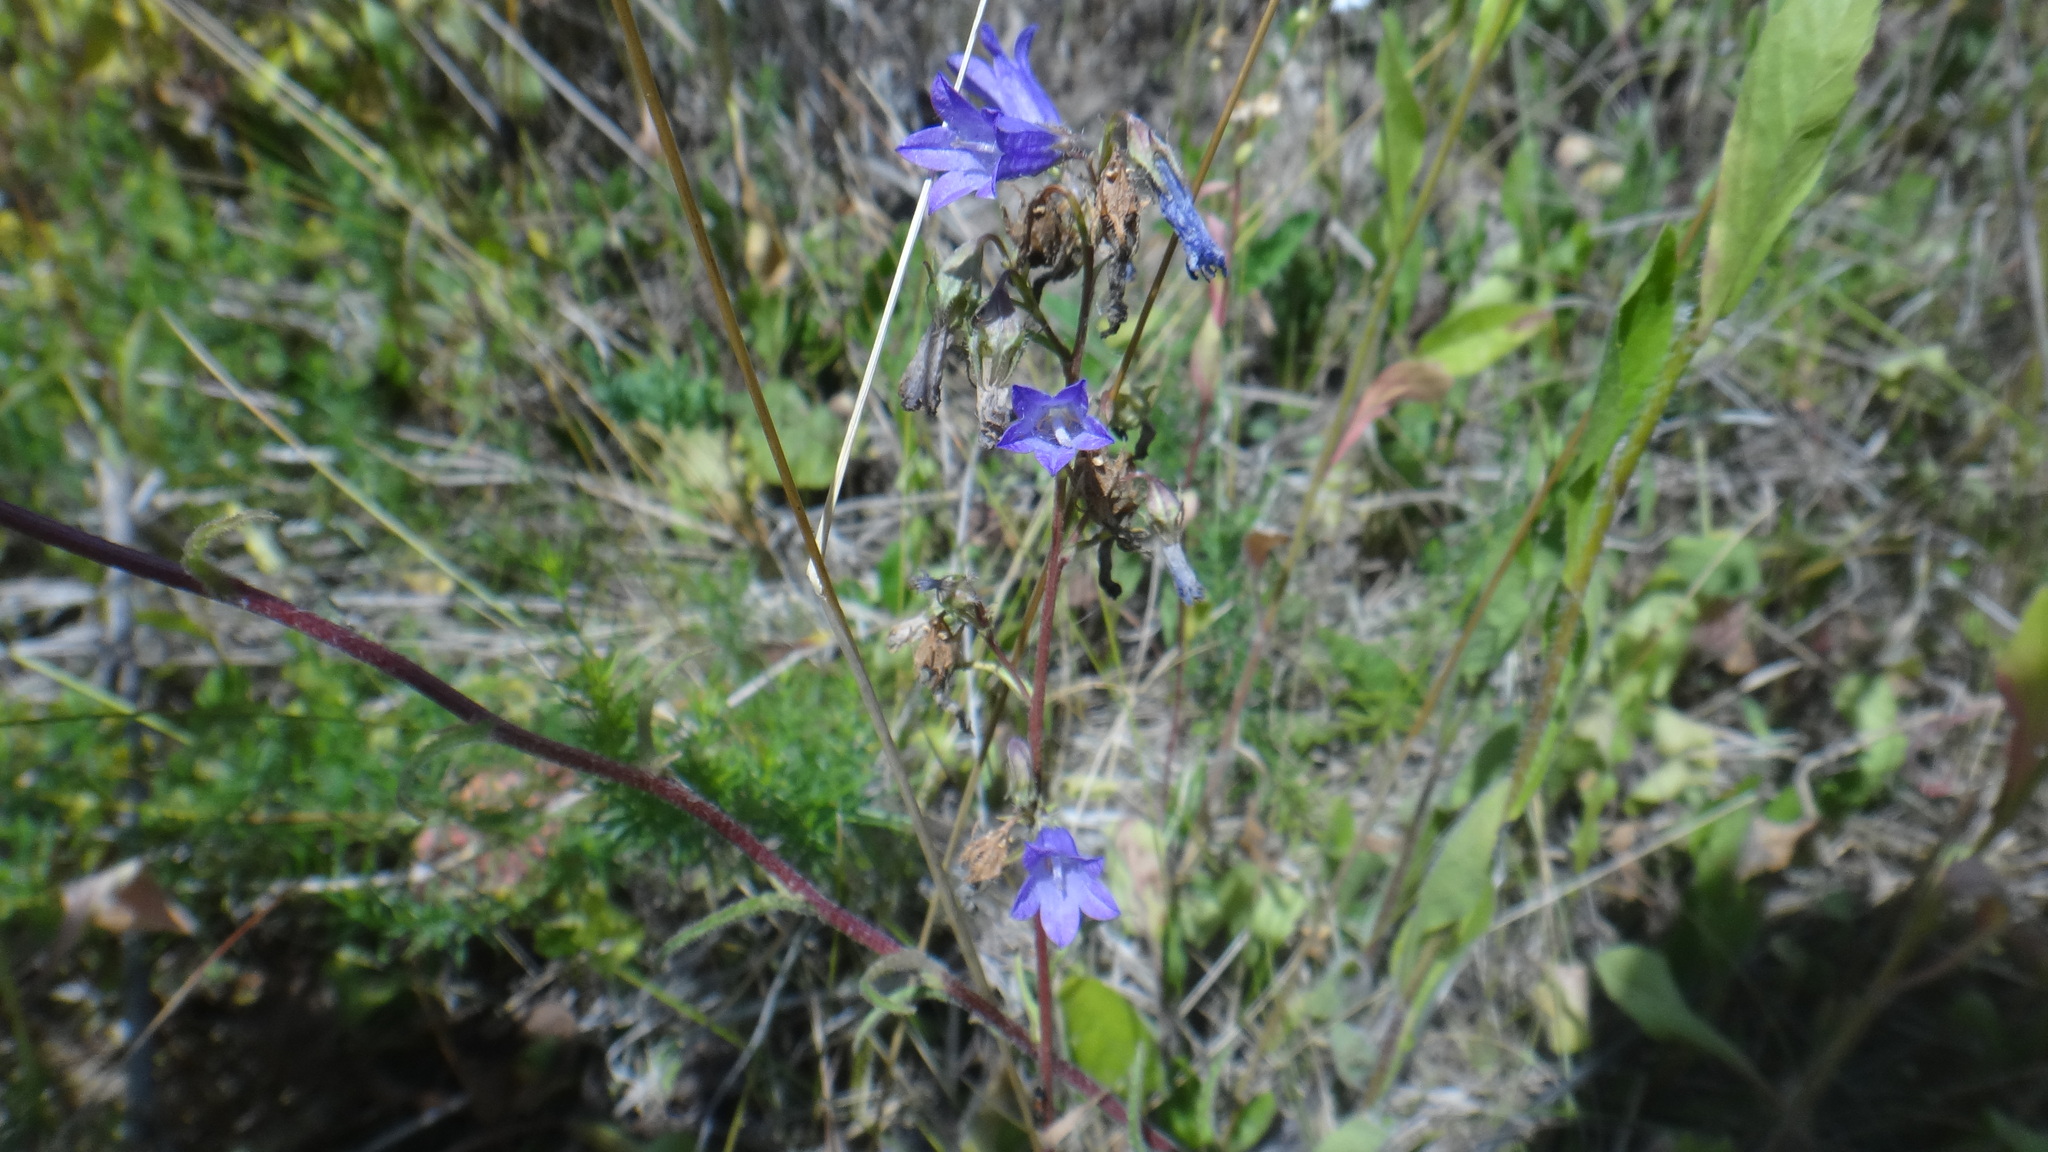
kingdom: Plantae
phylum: Tracheophyta
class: Magnoliopsida
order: Asterales
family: Campanulaceae
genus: Campanula
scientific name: Campanula sibirica
